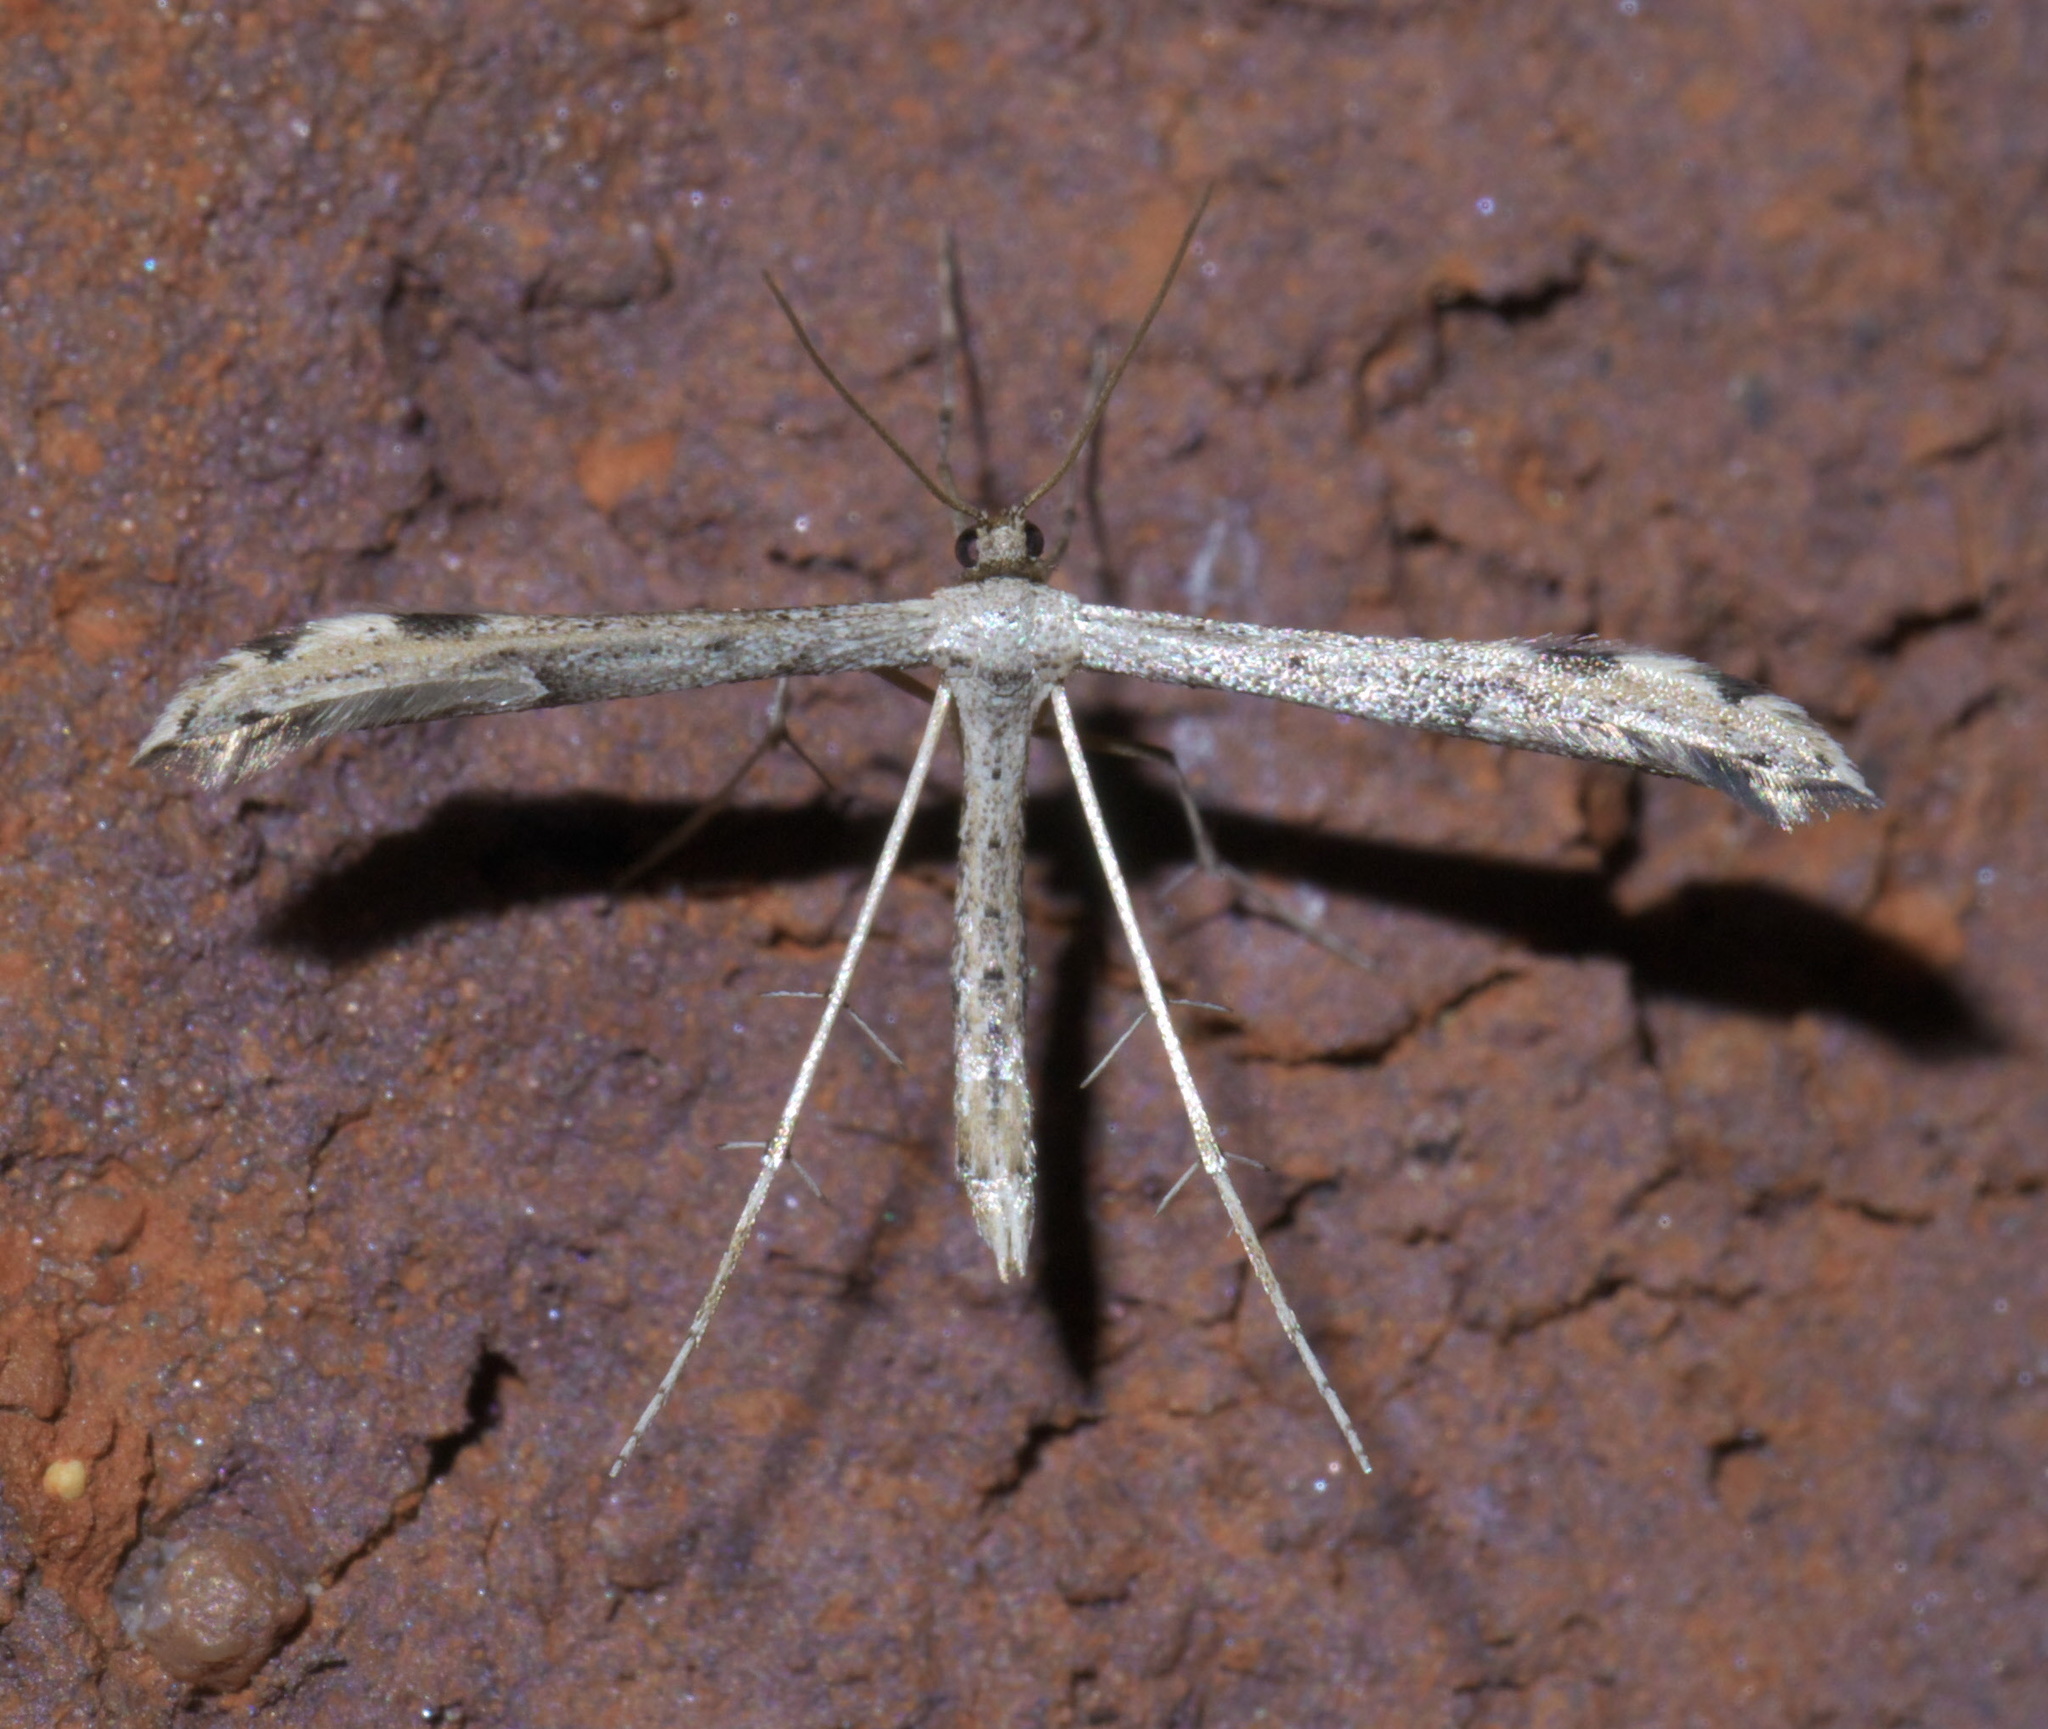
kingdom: Animalia
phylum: Arthropoda
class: Insecta
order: Lepidoptera
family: Pterophoridae
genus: Adaina
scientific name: Adaina ambrosiae
